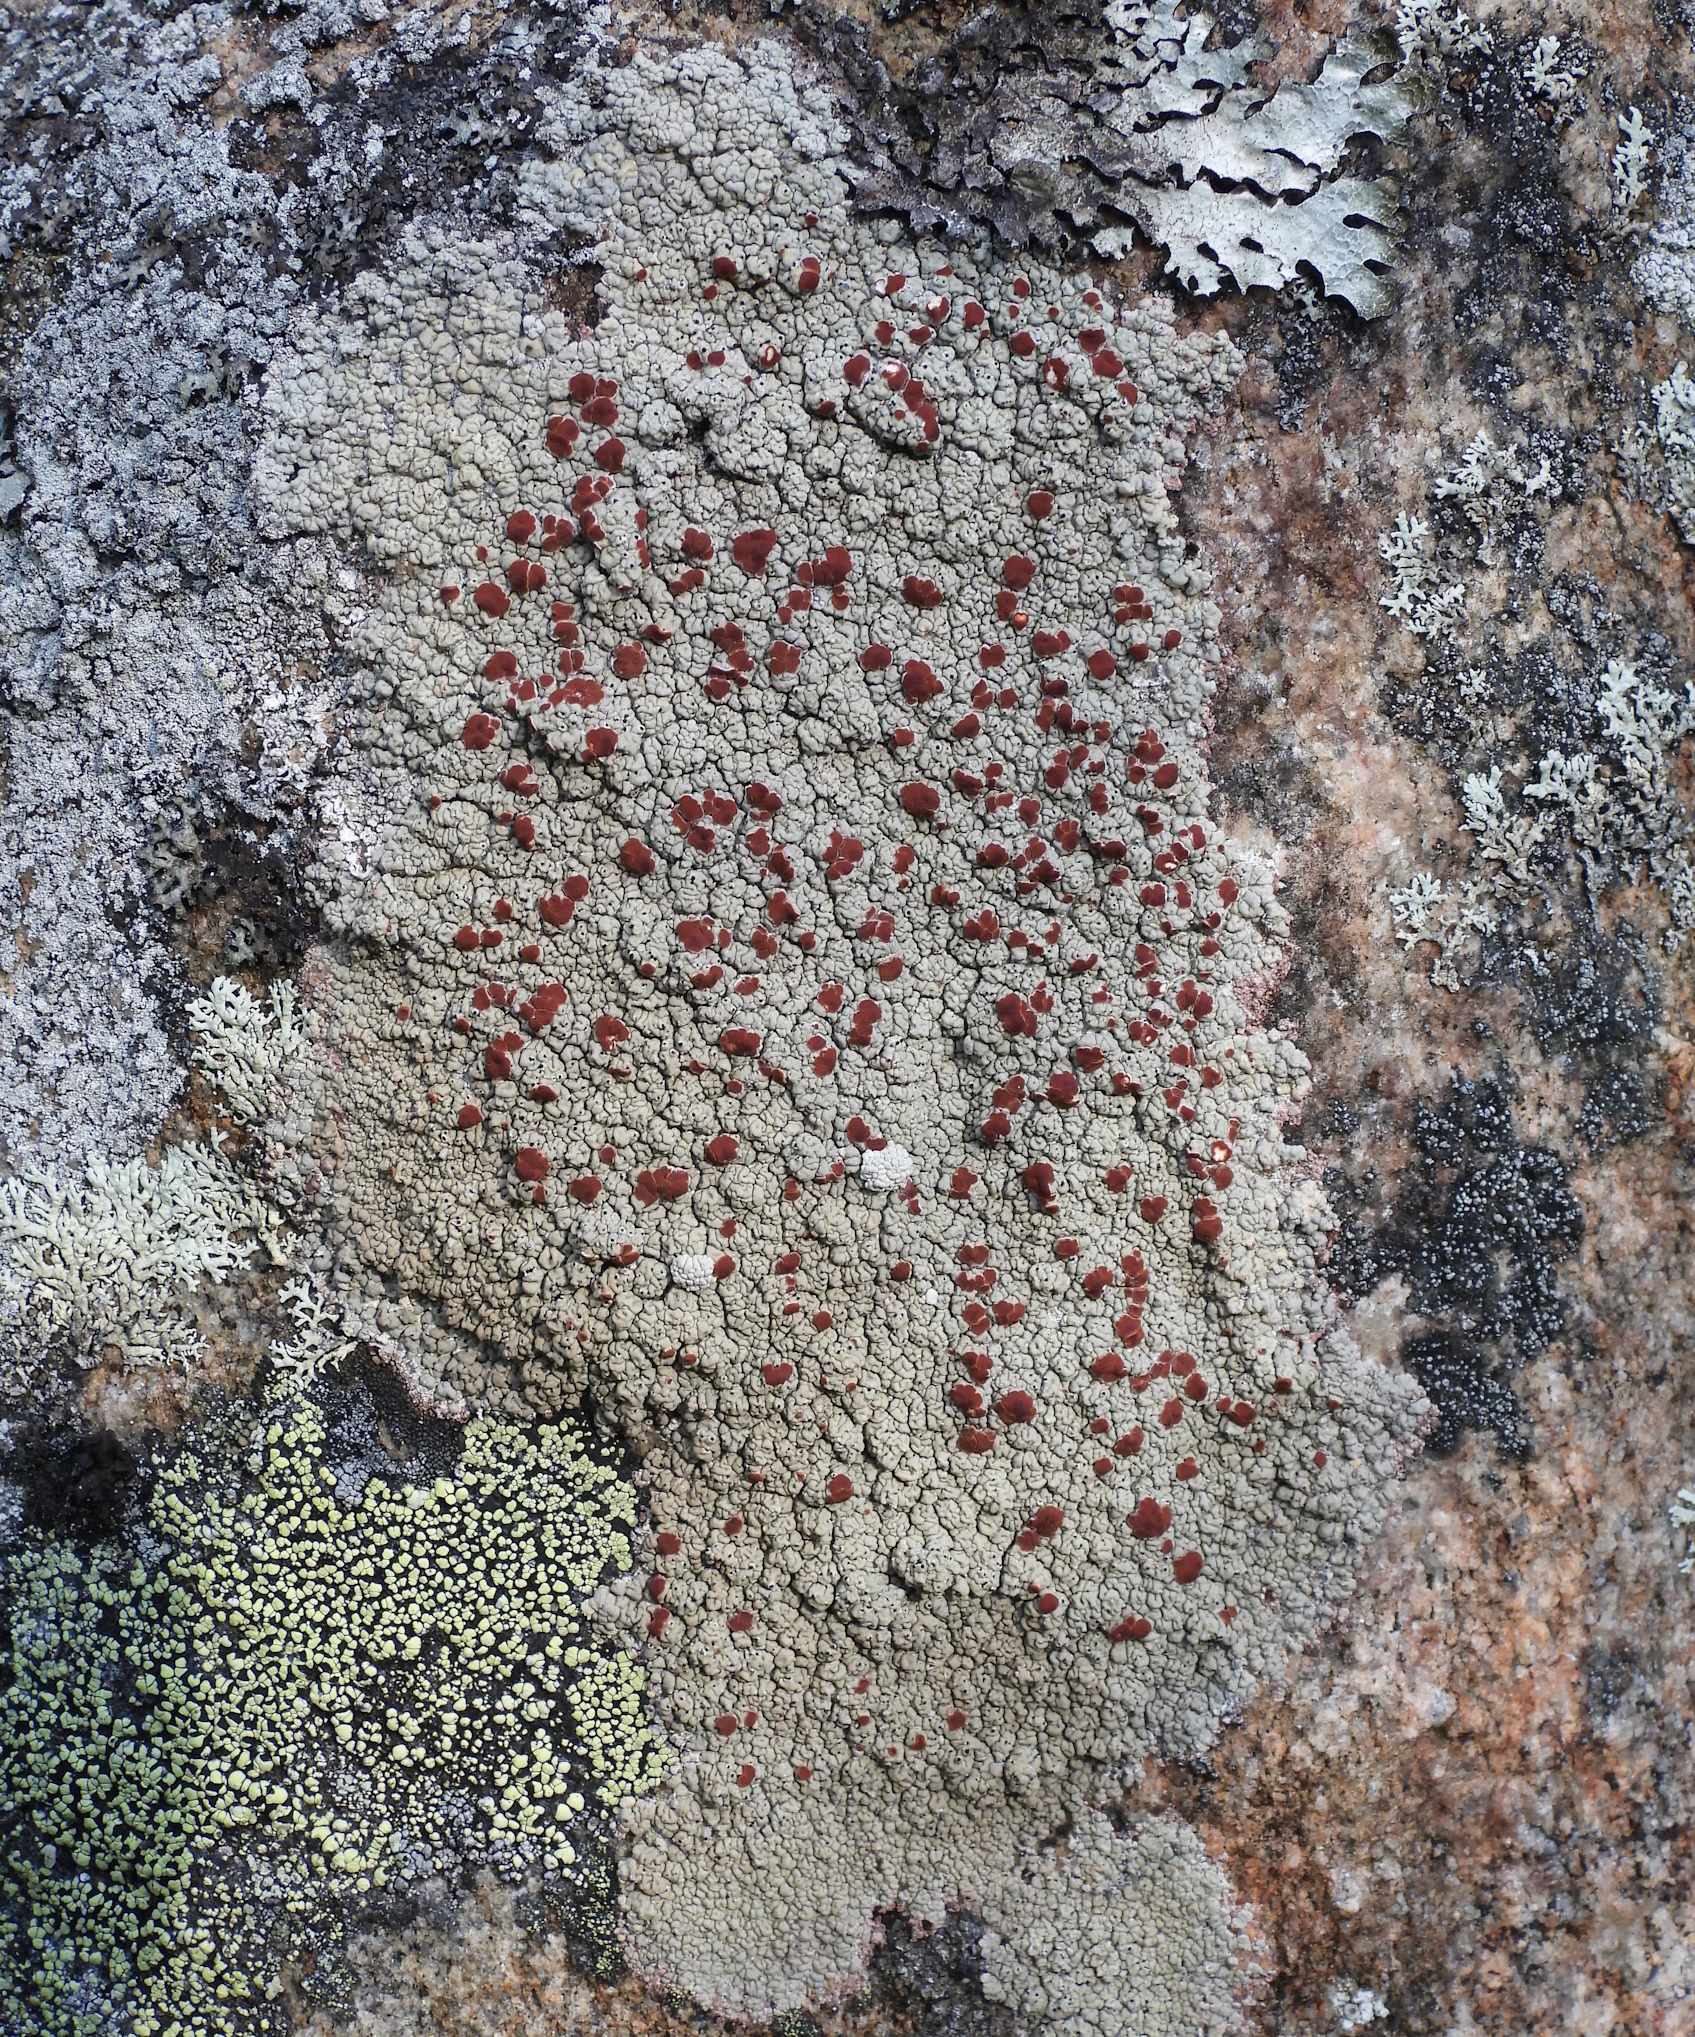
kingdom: Fungi
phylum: Ascomycota
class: Lecanoromycetes
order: Umbilicariales
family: Ophioparmaceae
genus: Ophioparma
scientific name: Ophioparma ventosa
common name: Blood-spot
